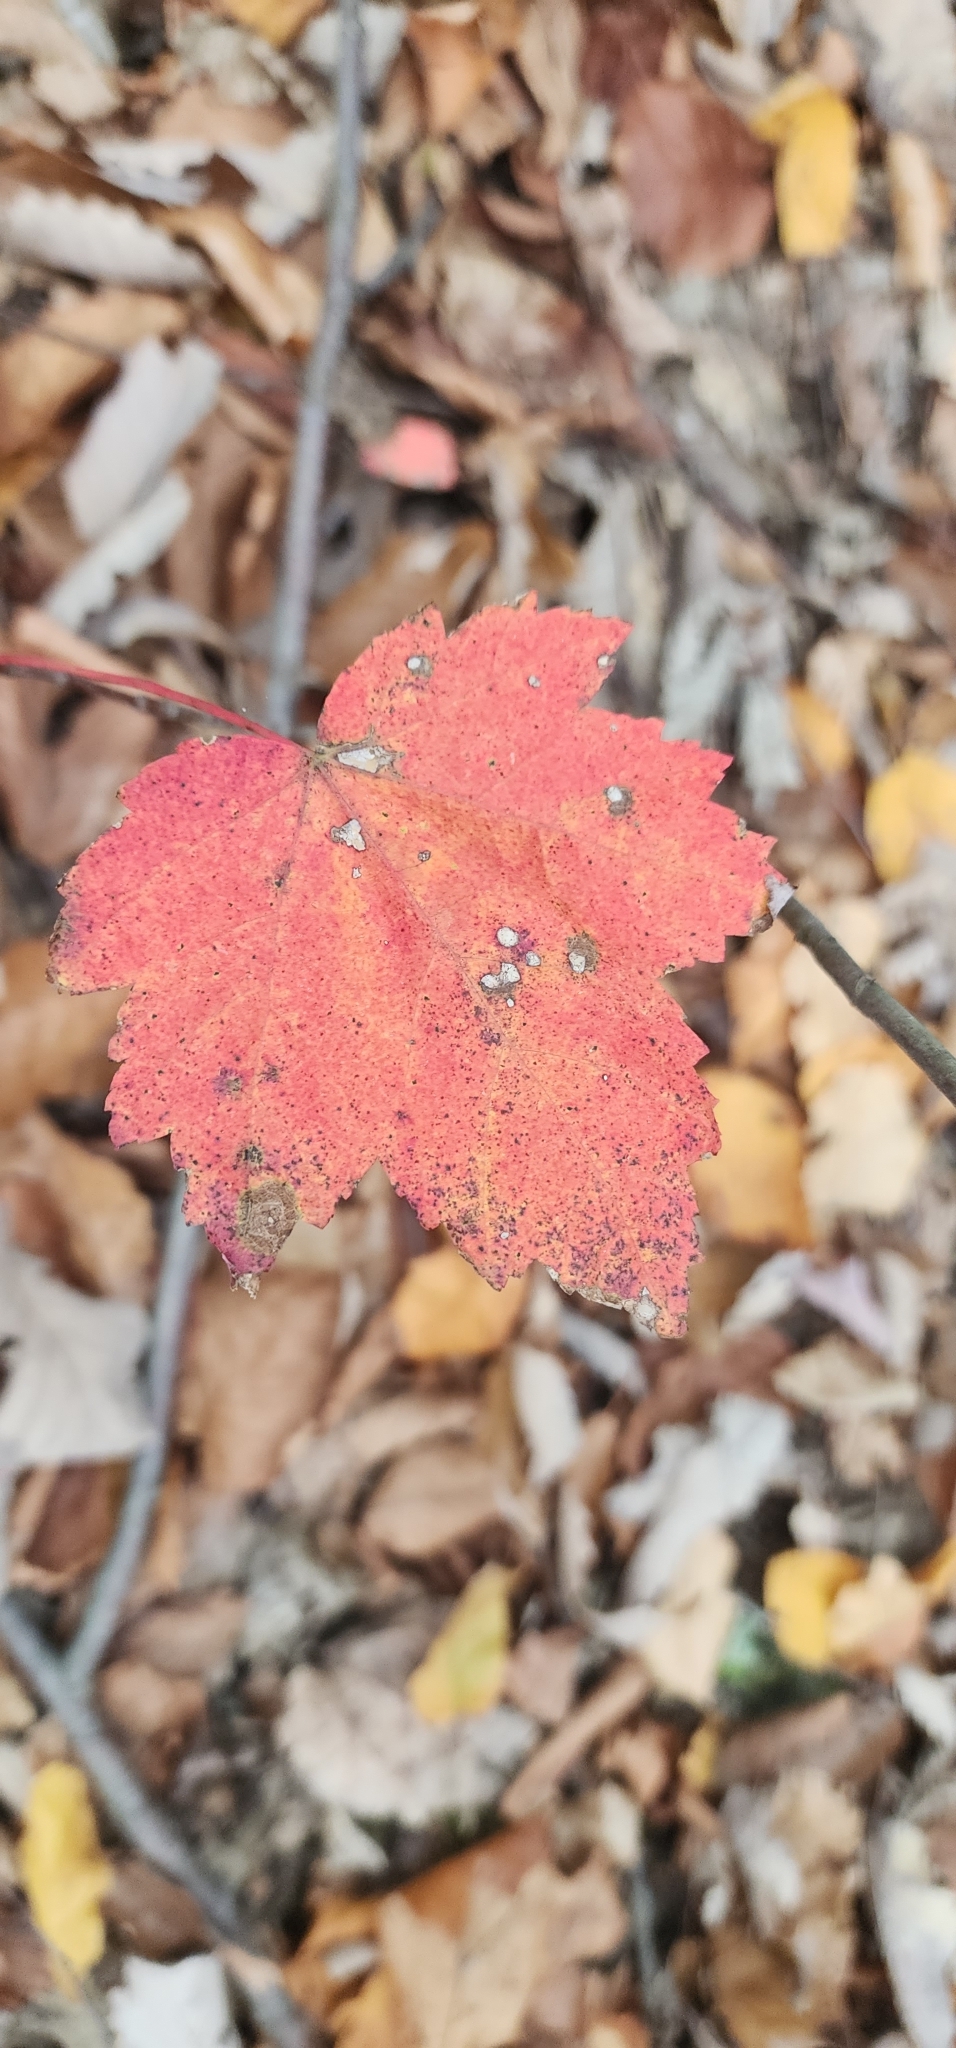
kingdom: Plantae
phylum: Tracheophyta
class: Magnoliopsida
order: Sapindales
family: Sapindaceae
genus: Acer
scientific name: Acer rubrum
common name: Red maple
